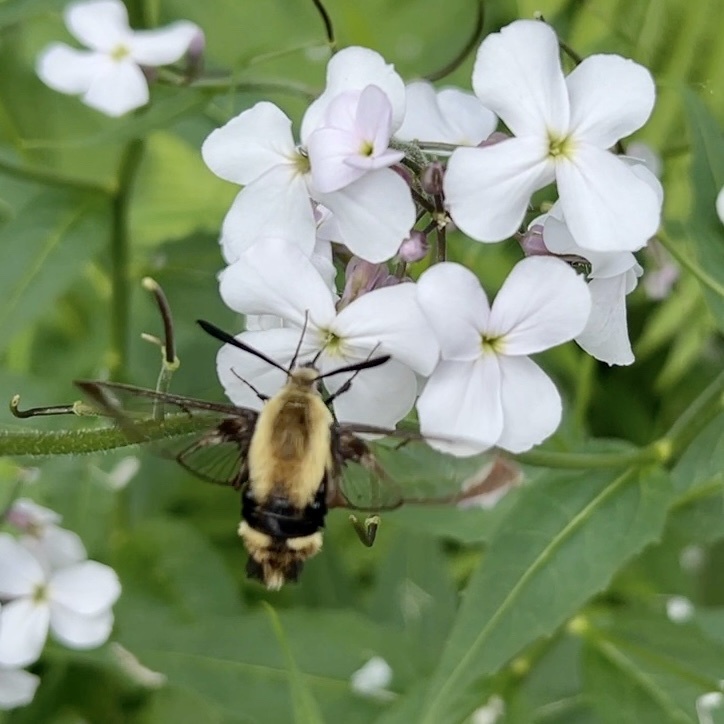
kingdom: Animalia
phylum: Arthropoda
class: Insecta
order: Lepidoptera
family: Sphingidae
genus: Hemaris
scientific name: Hemaris diffinis
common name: Bumblebee moth
